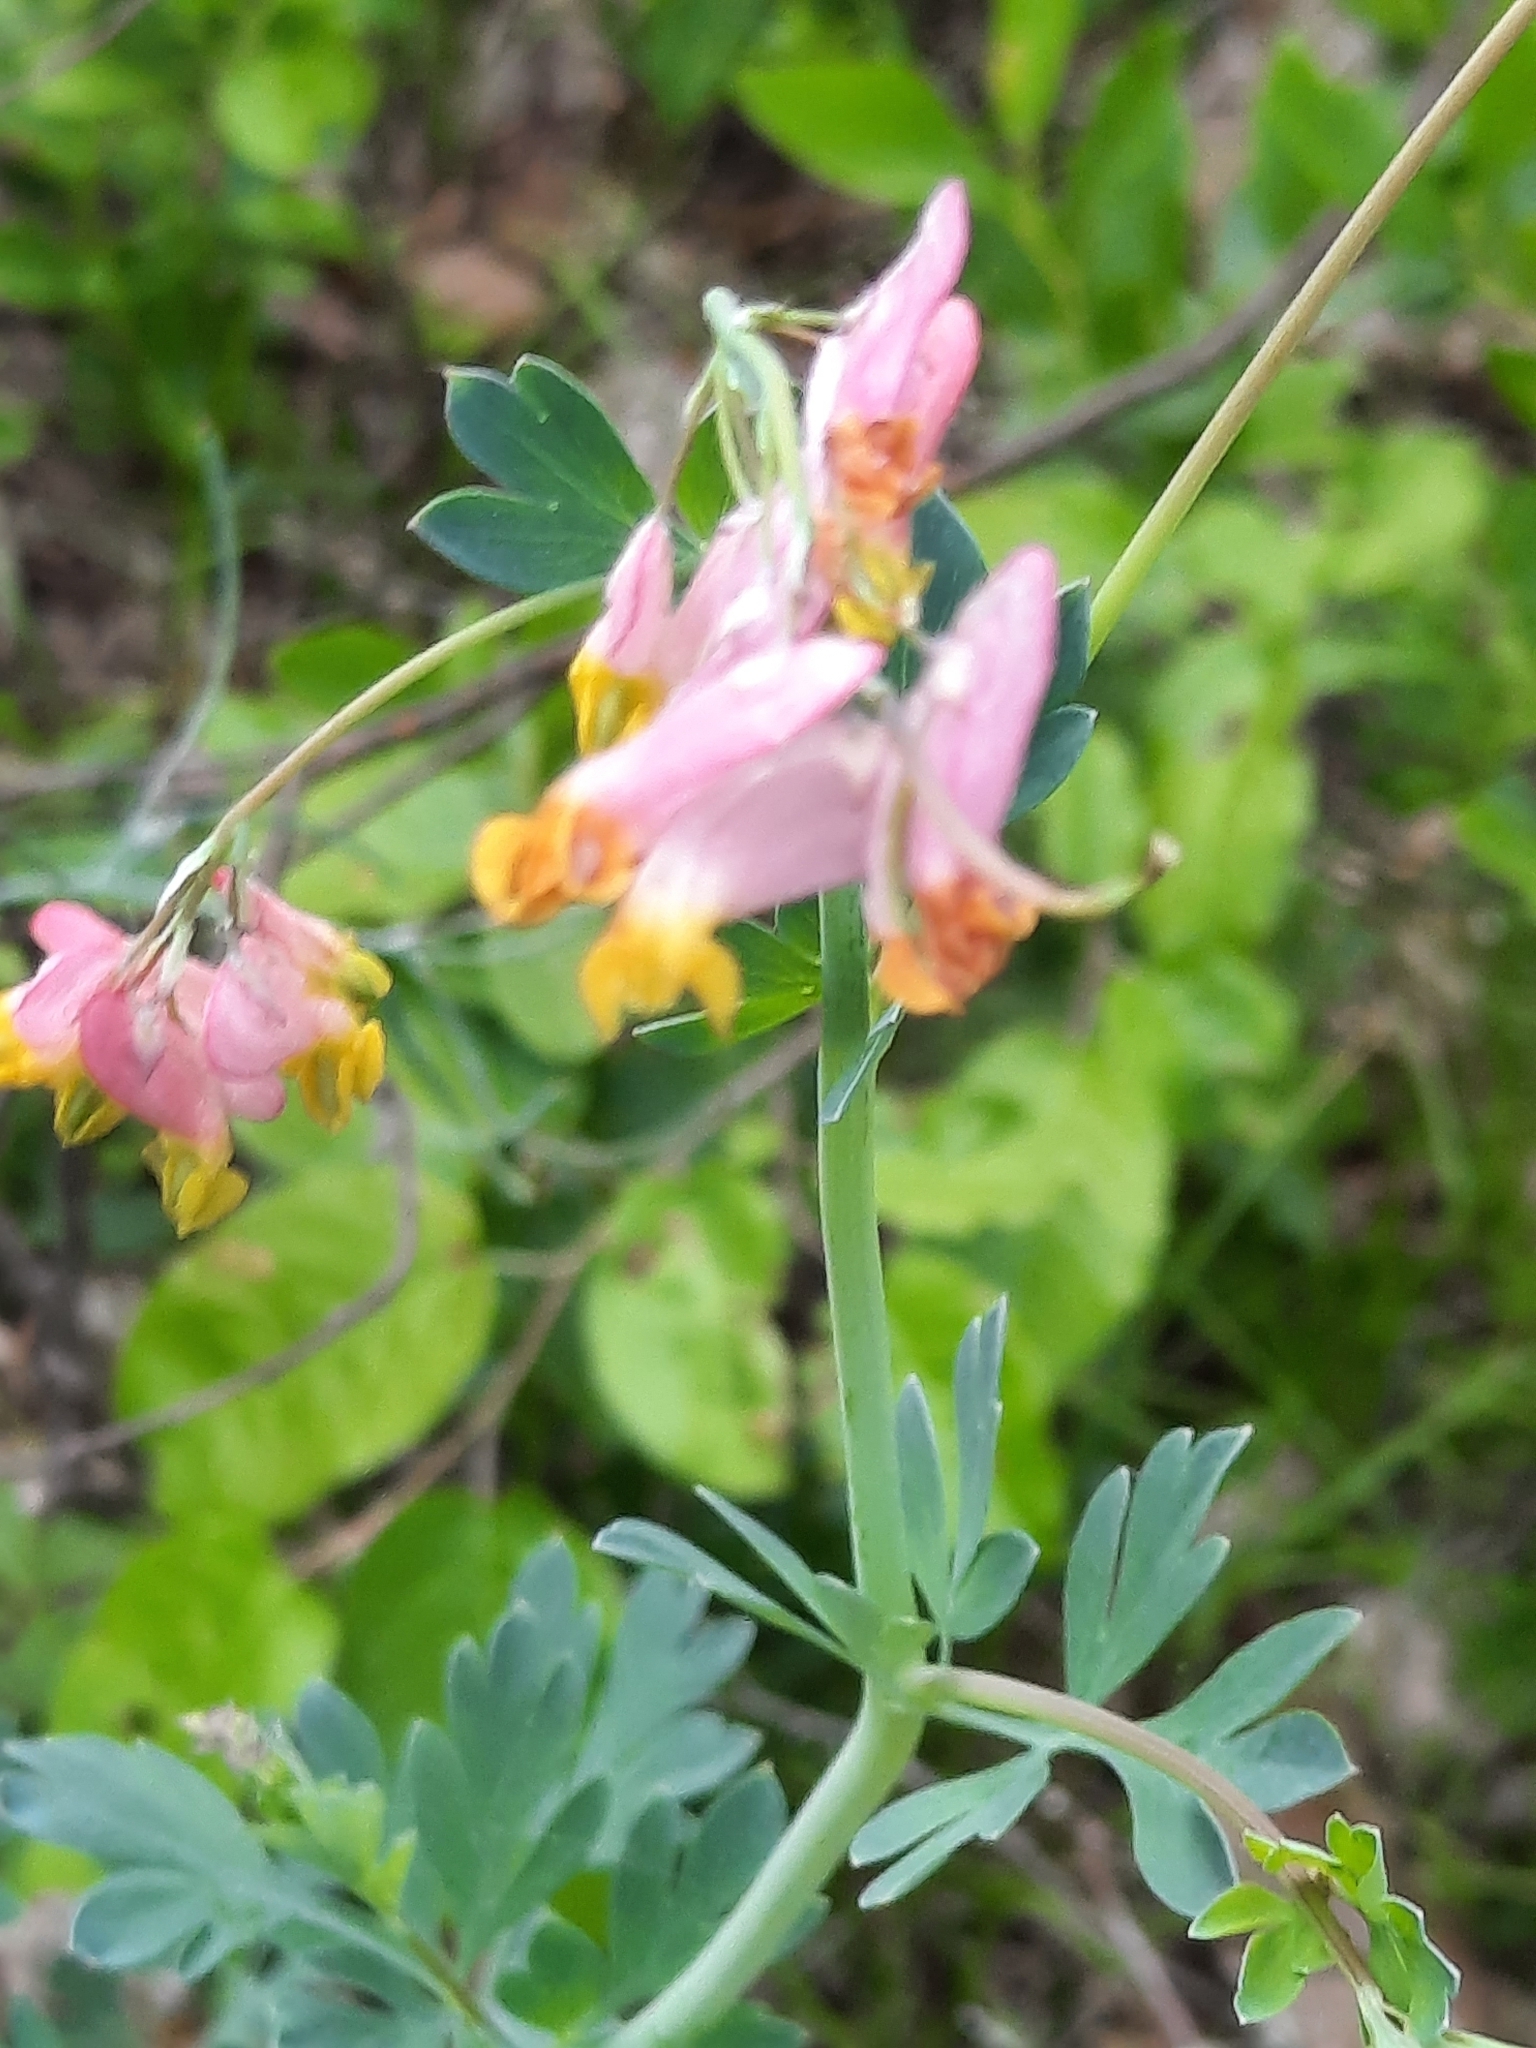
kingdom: Plantae
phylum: Tracheophyta
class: Magnoliopsida
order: Ranunculales
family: Papaveraceae
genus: Capnoides
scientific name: Capnoides sempervirens
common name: Rock harlequin
